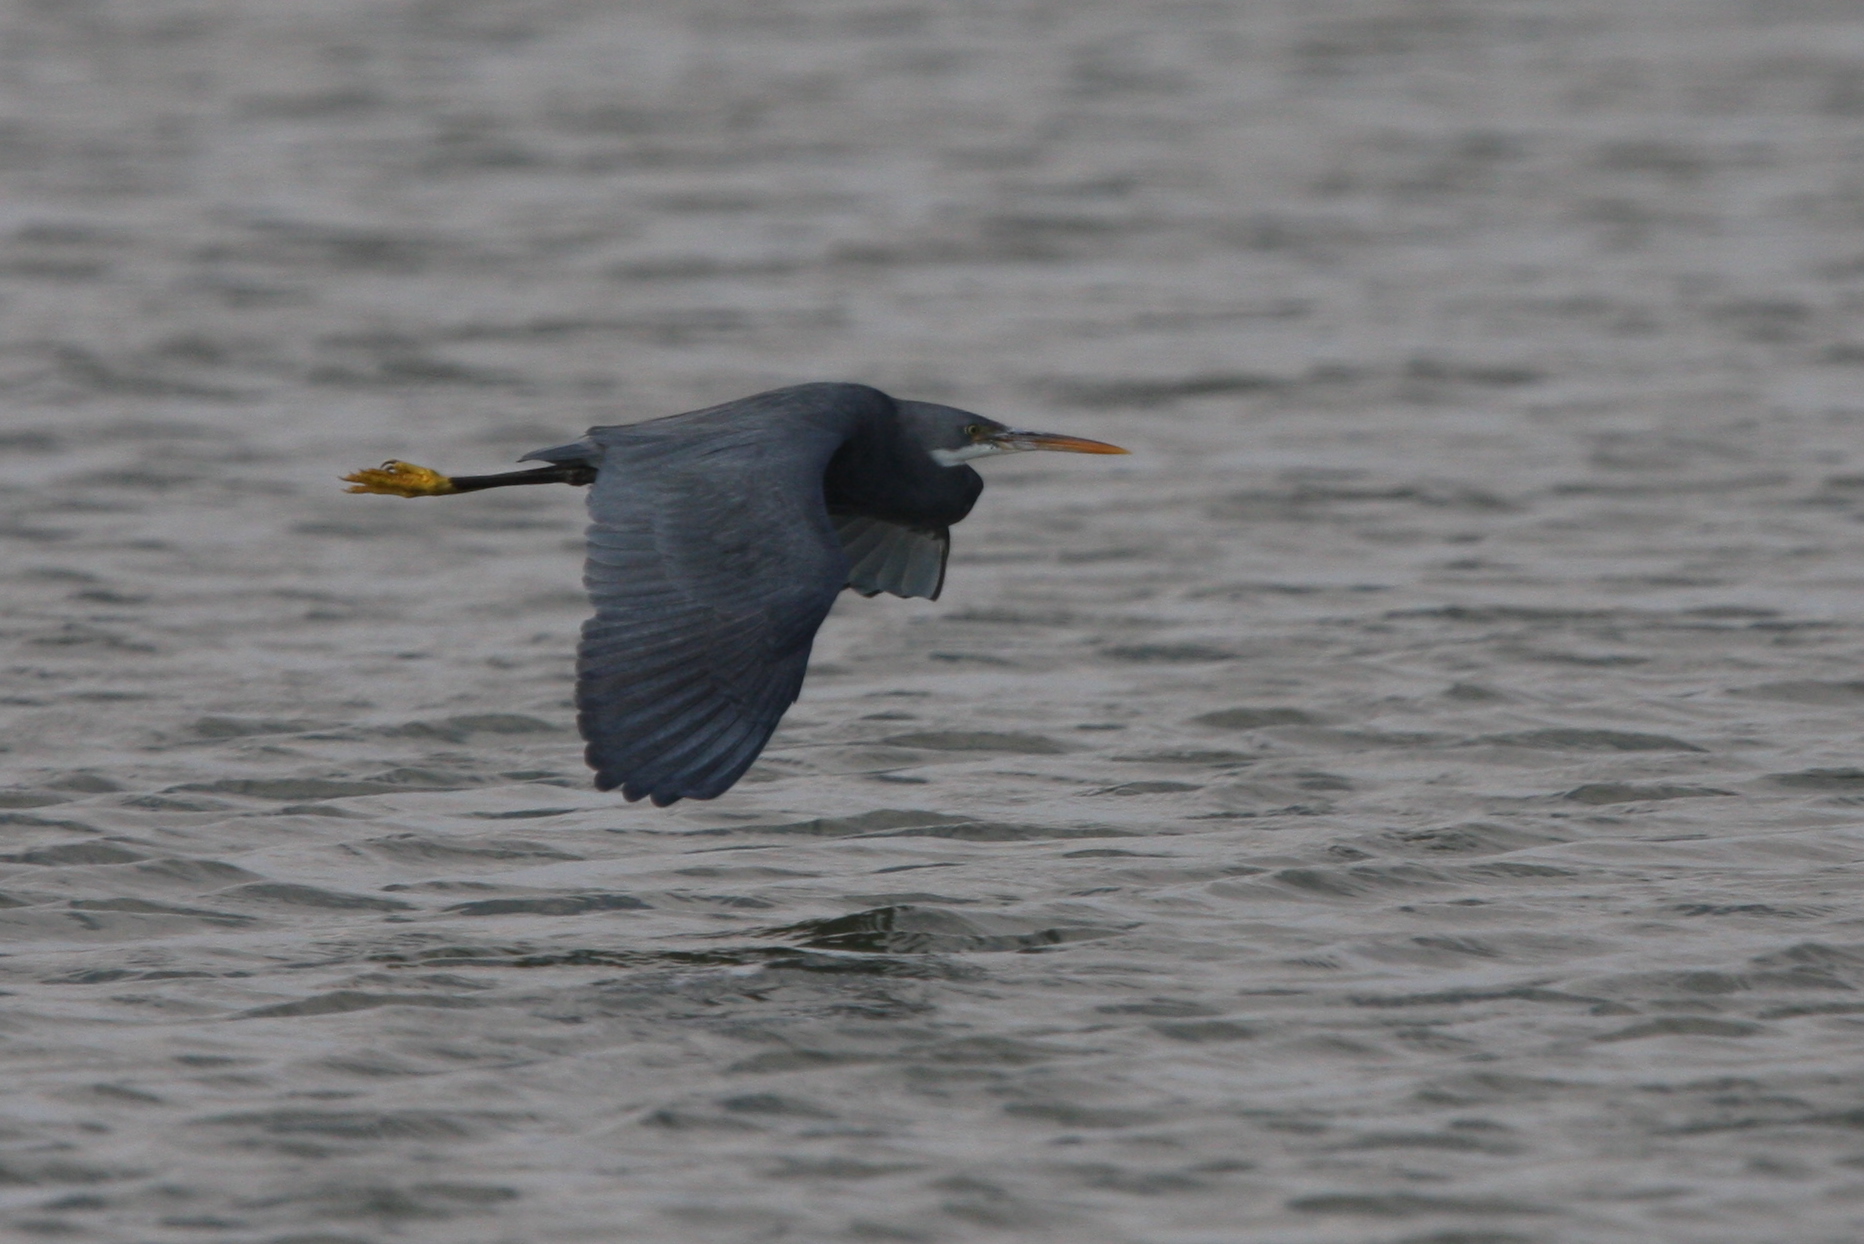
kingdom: Animalia
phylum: Chordata
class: Aves
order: Pelecaniformes
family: Ardeidae
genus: Egretta
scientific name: Egretta gularis
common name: Western reef-heron
